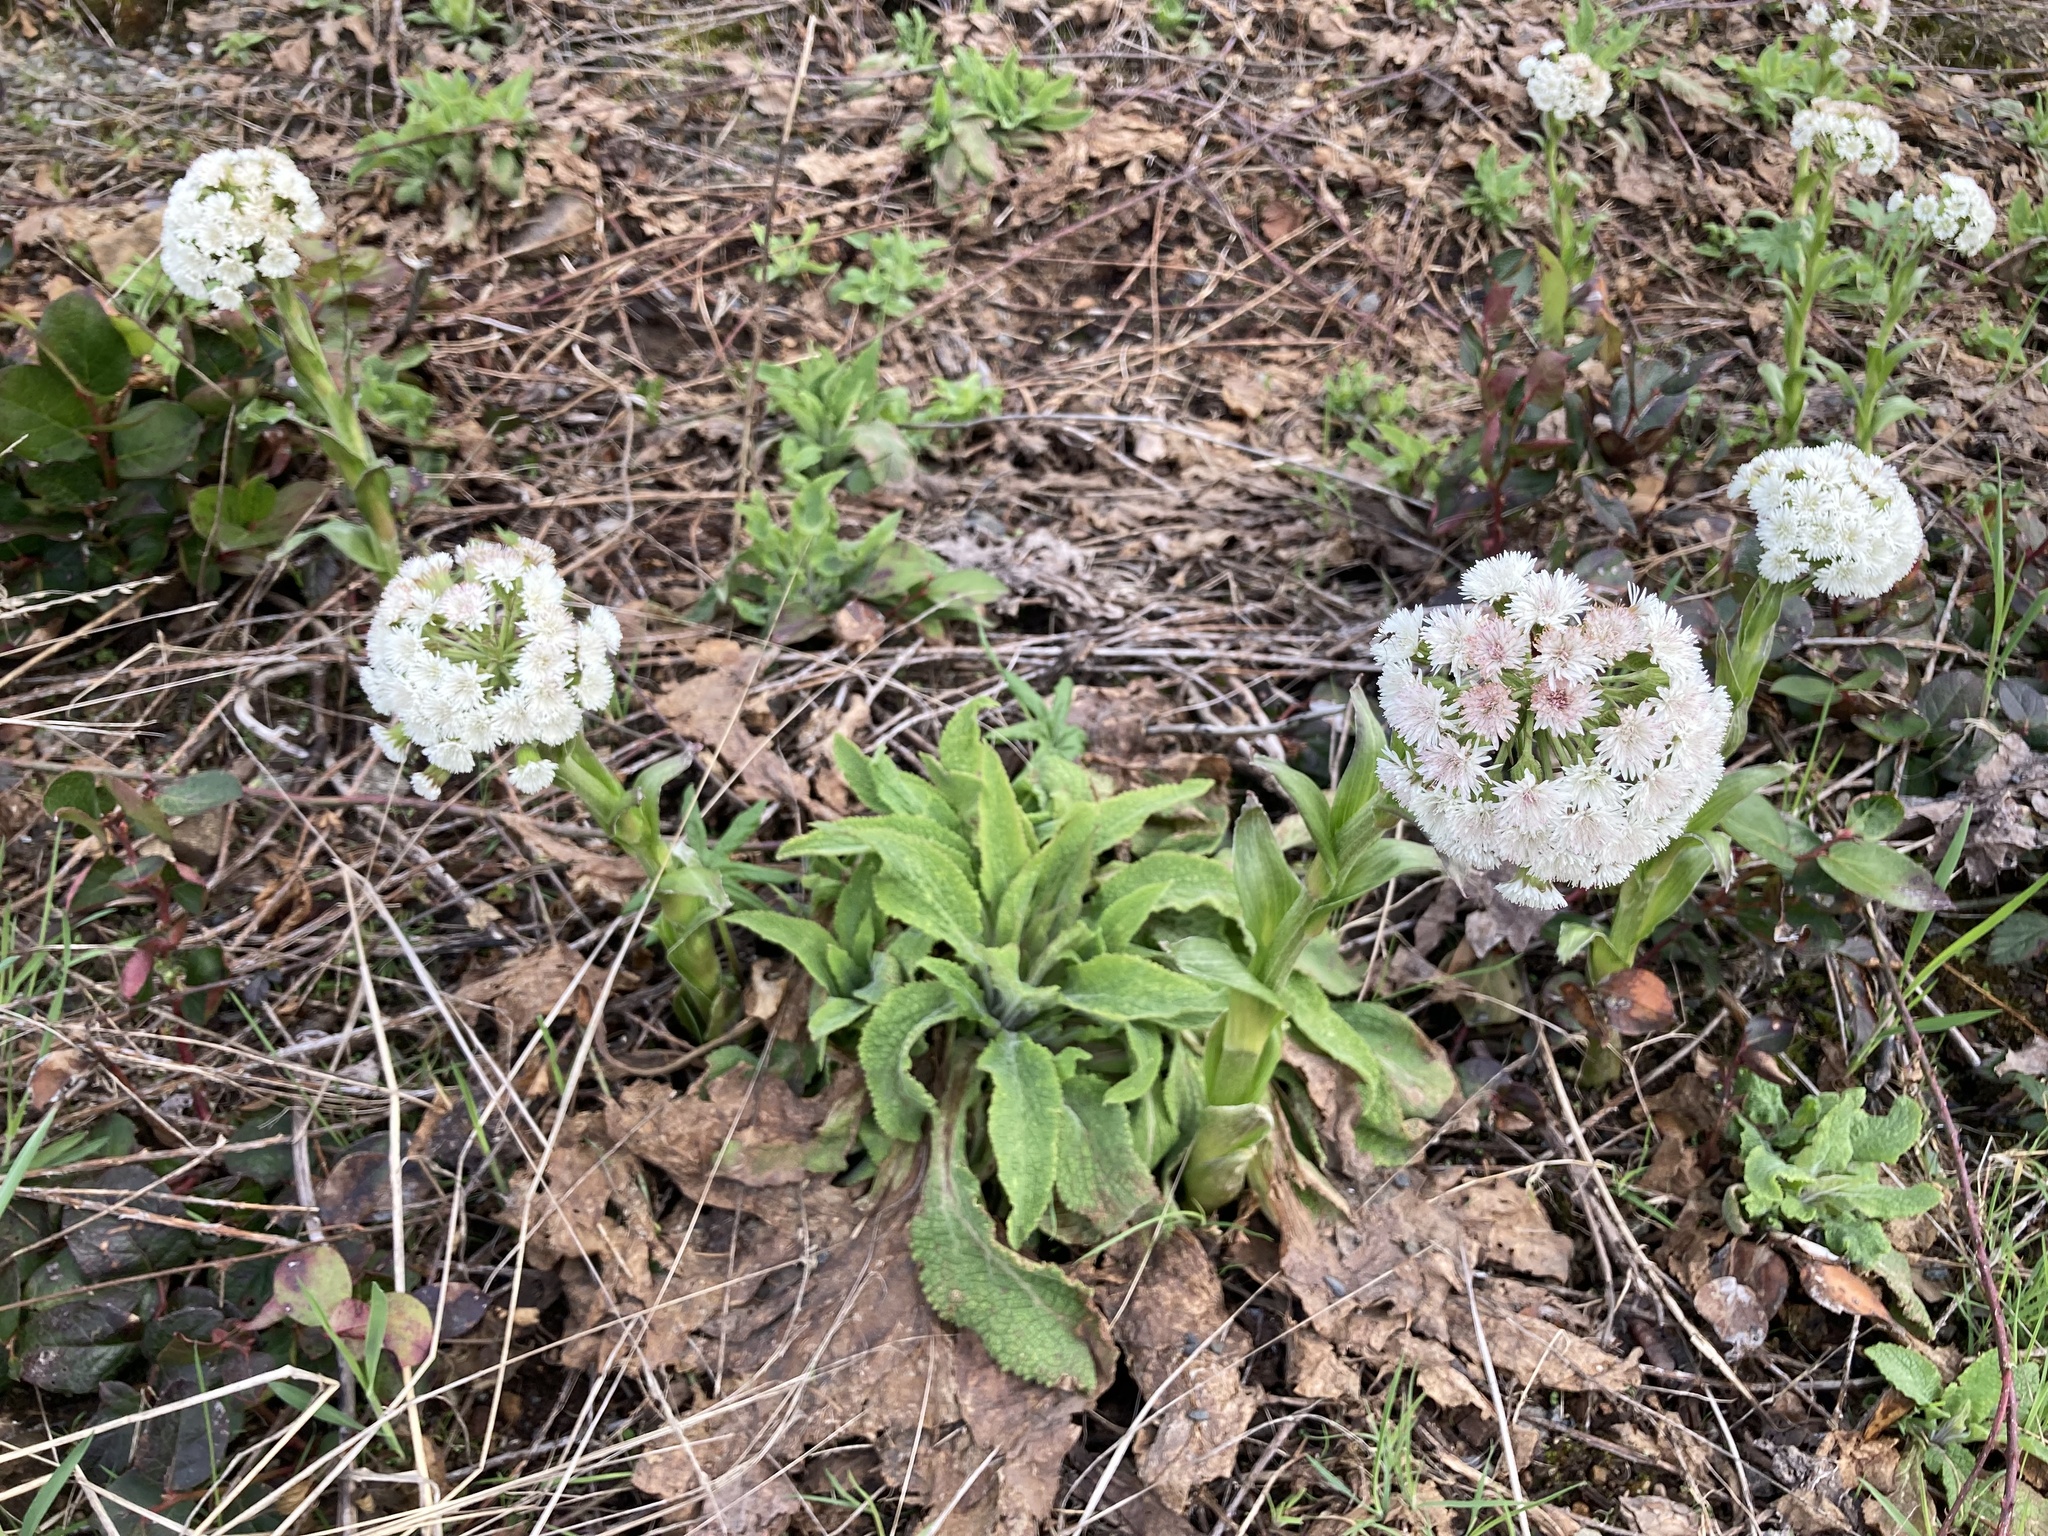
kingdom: Plantae
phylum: Tracheophyta
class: Magnoliopsida
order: Asterales
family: Asteraceae
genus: Petasites
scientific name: Petasites frigidus
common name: Arctic butterbur
